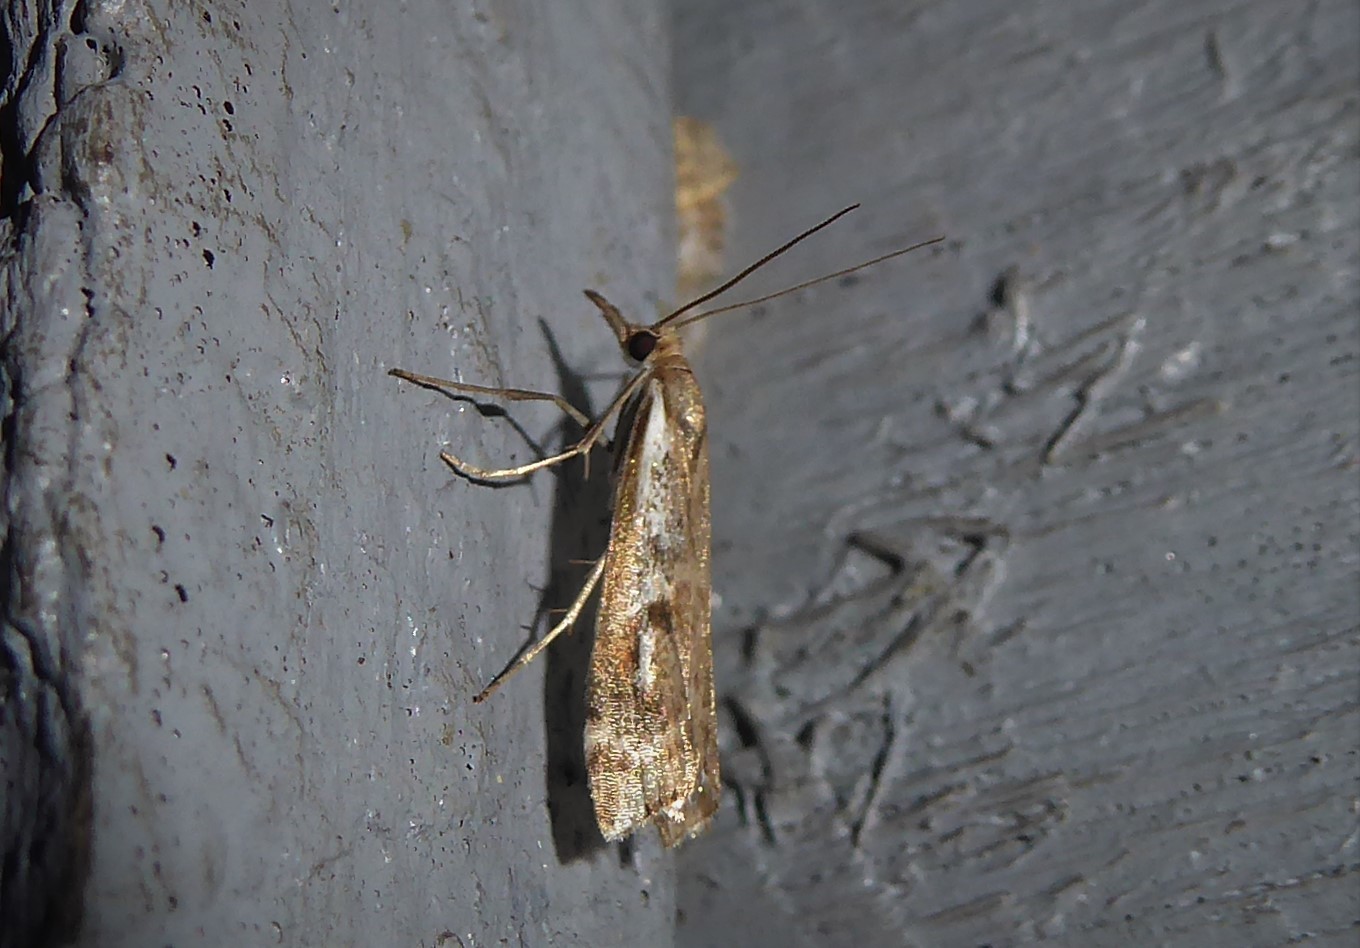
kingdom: Animalia
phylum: Arthropoda
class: Insecta
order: Lepidoptera
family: Crambidae
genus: Orocrambus
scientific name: Orocrambus vulgaris
